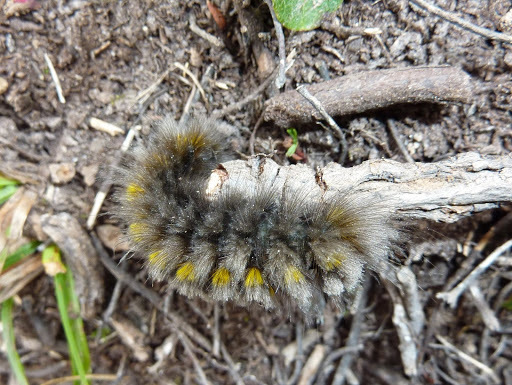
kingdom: Animalia
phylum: Arthropoda
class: Insecta
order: Lepidoptera
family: Erebidae
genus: Gynaephora
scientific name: Gynaephora rossii
